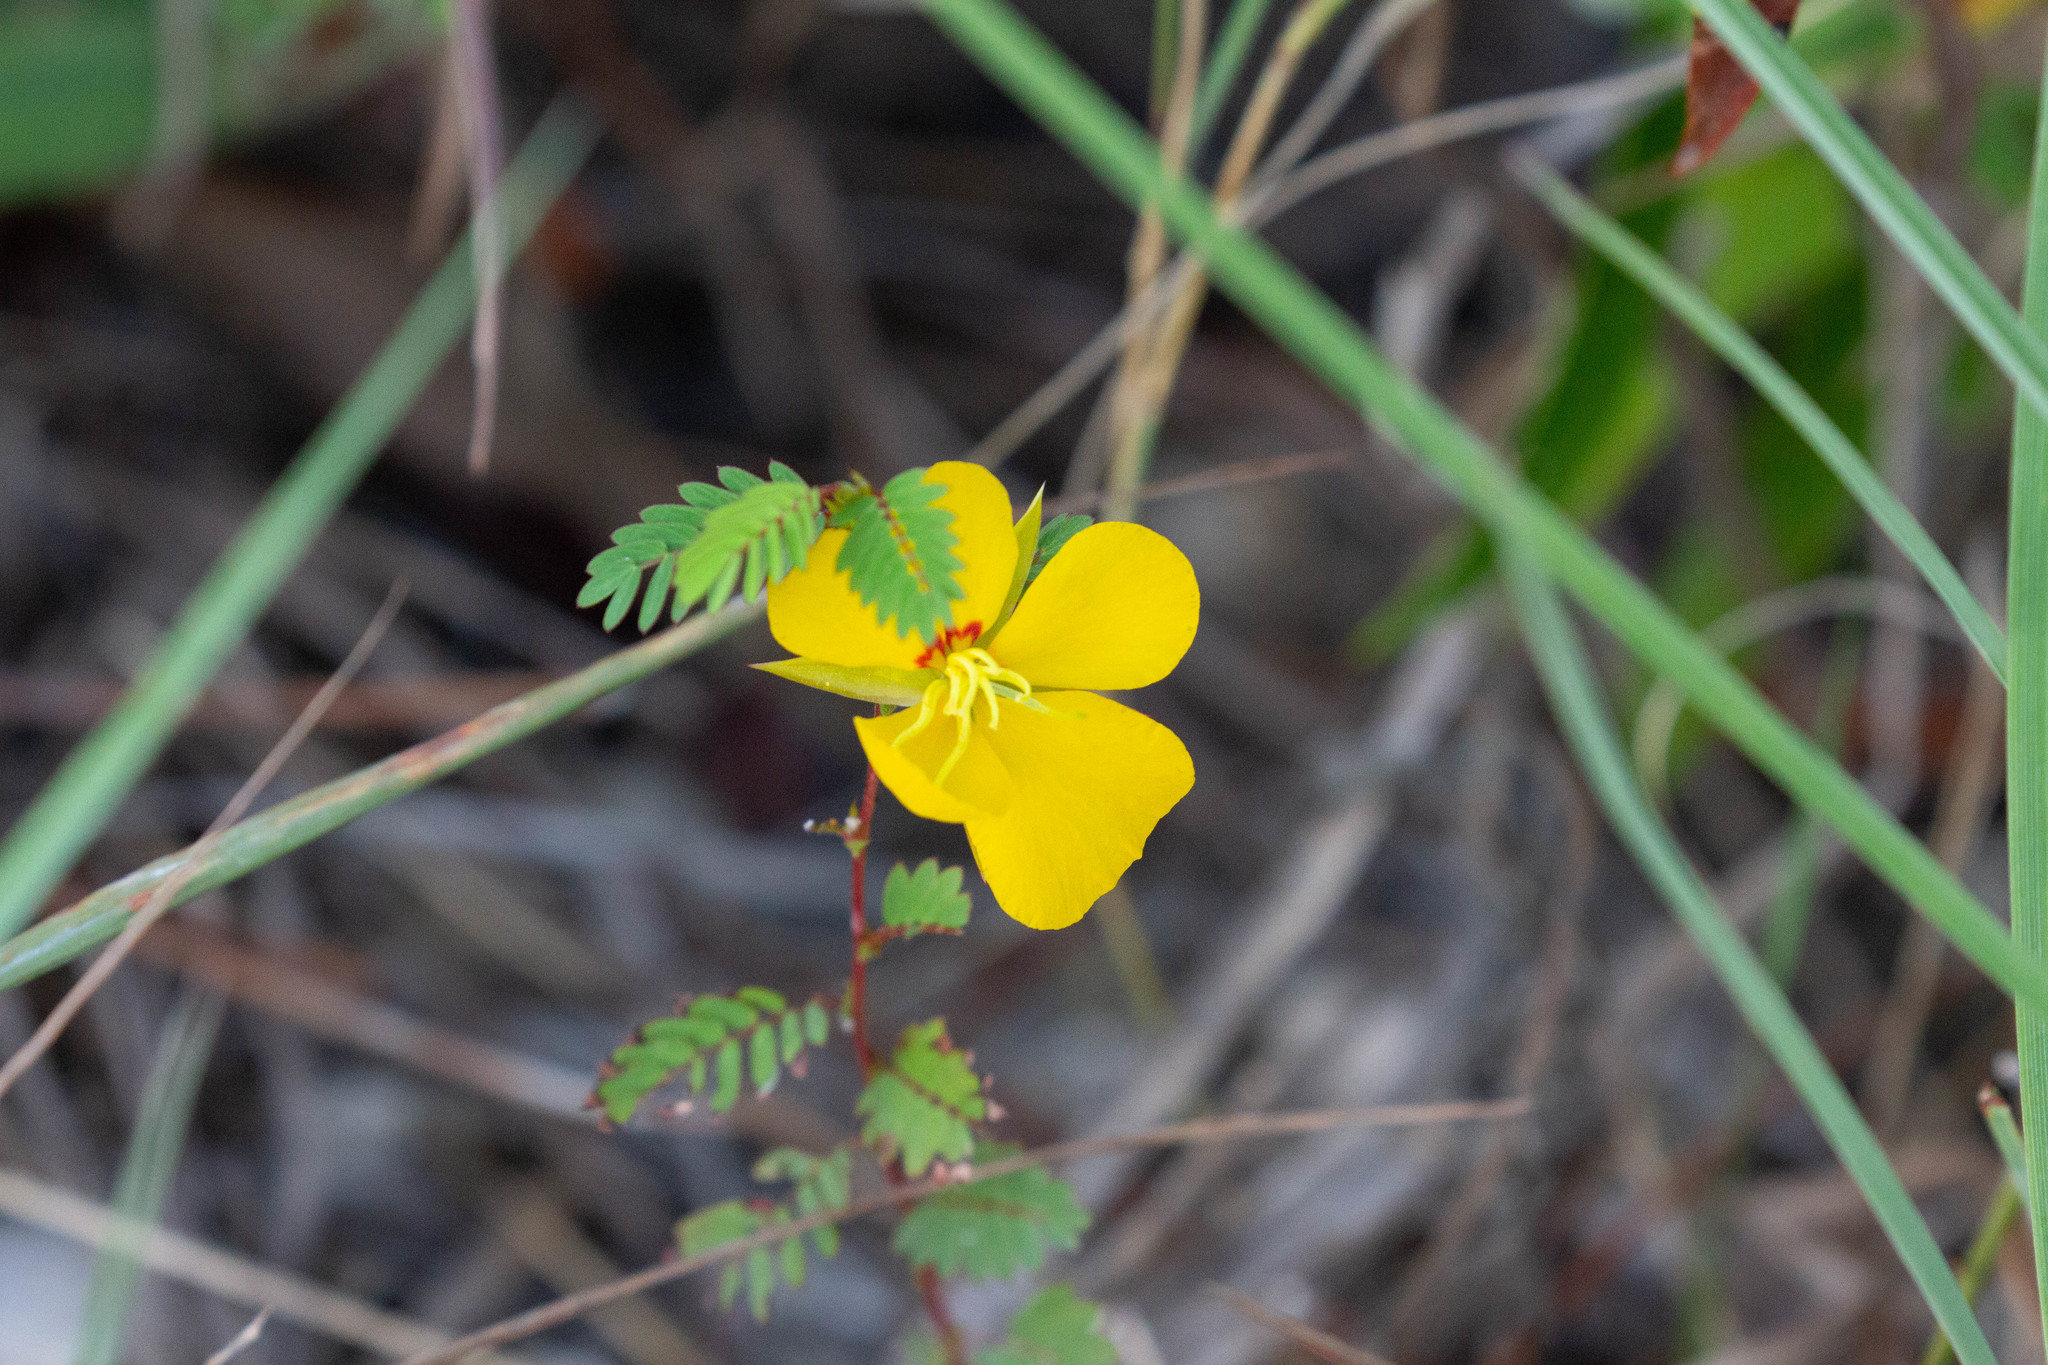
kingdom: Plantae
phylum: Tracheophyta
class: Magnoliopsida
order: Fabales
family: Fabaceae
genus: Chamaecrista
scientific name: Chamaecrista fasciculata
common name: Golden cassia
